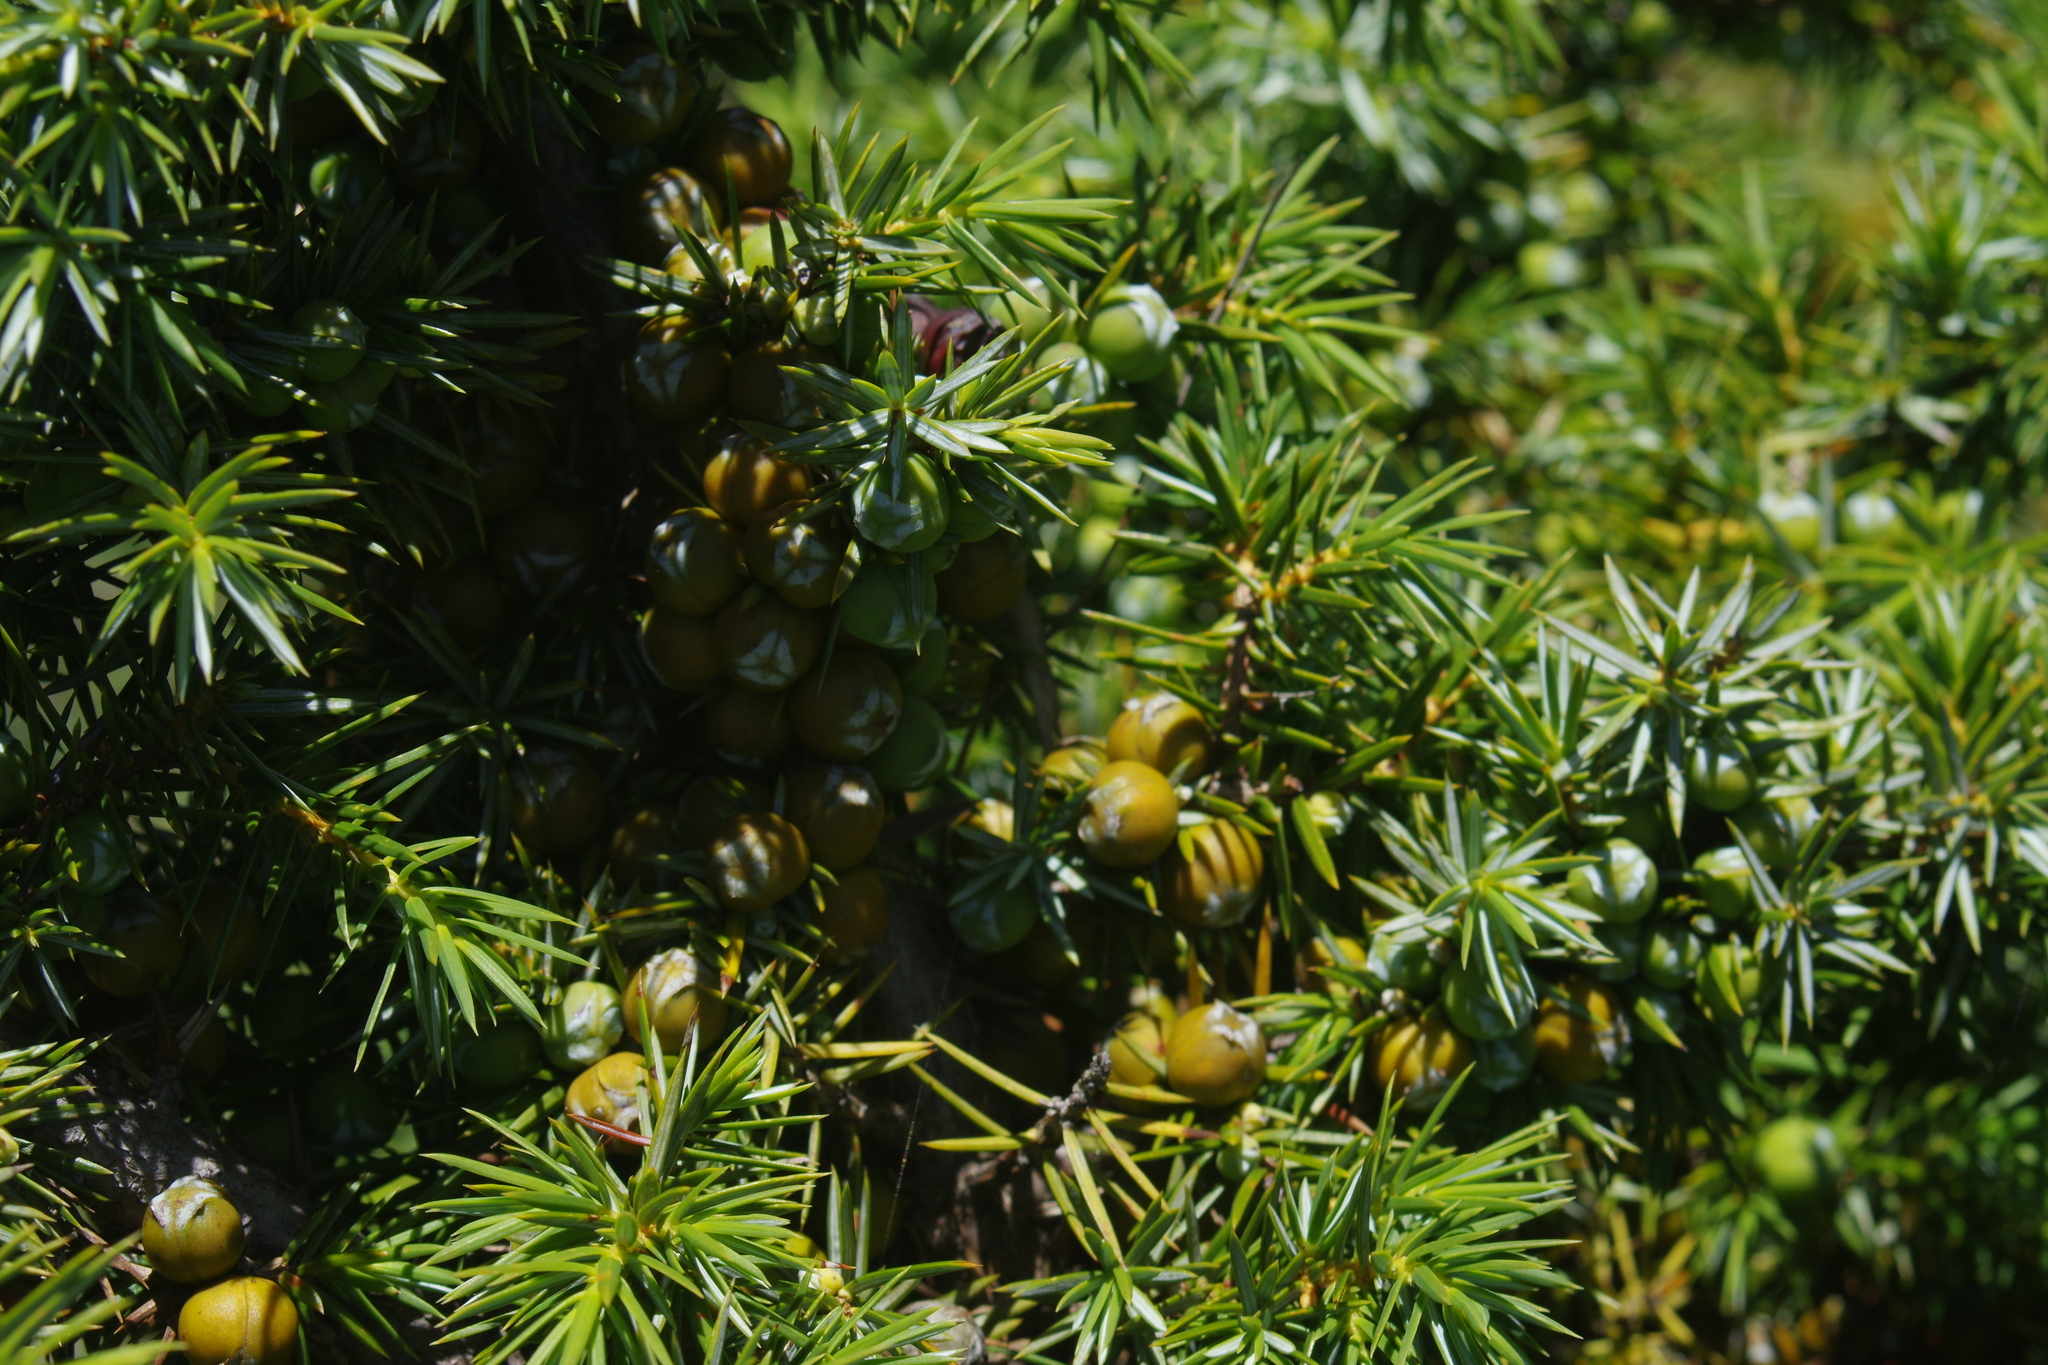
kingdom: Plantae
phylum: Tracheophyta
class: Pinopsida
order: Pinales
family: Cupressaceae
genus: Juniperus
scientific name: Juniperus formosana
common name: Formosan juniper
